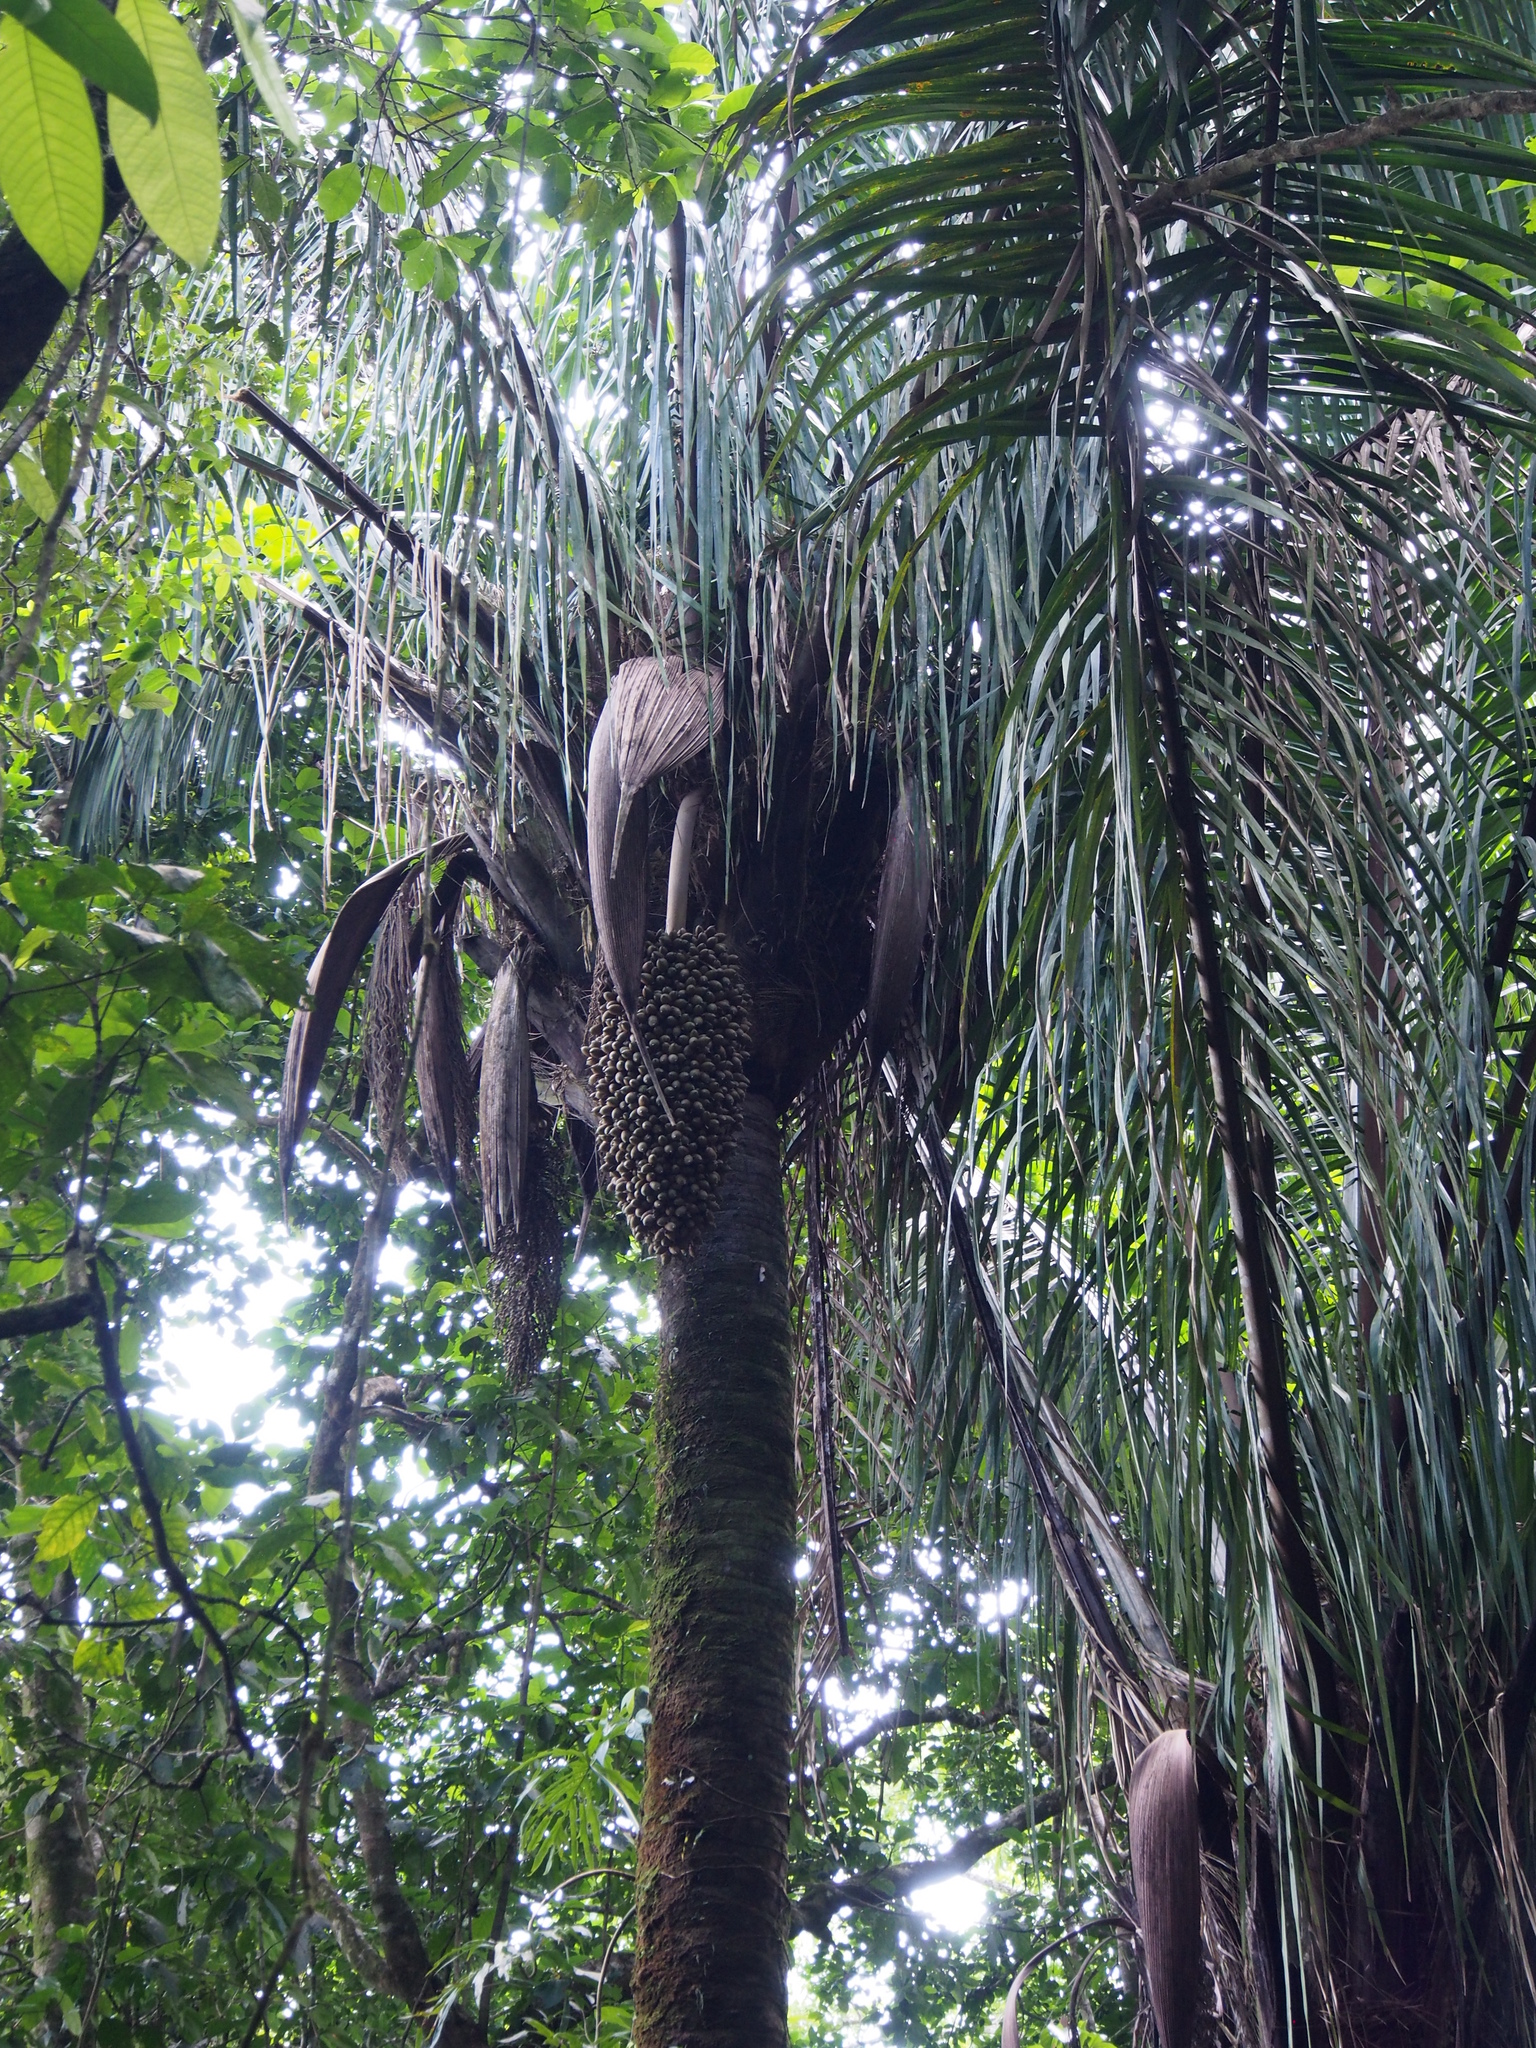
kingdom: Plantae
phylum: Tracheophyta
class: Liliopsida
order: Arecales
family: Arecaceae
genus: Attalea
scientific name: Attalea rostrata
